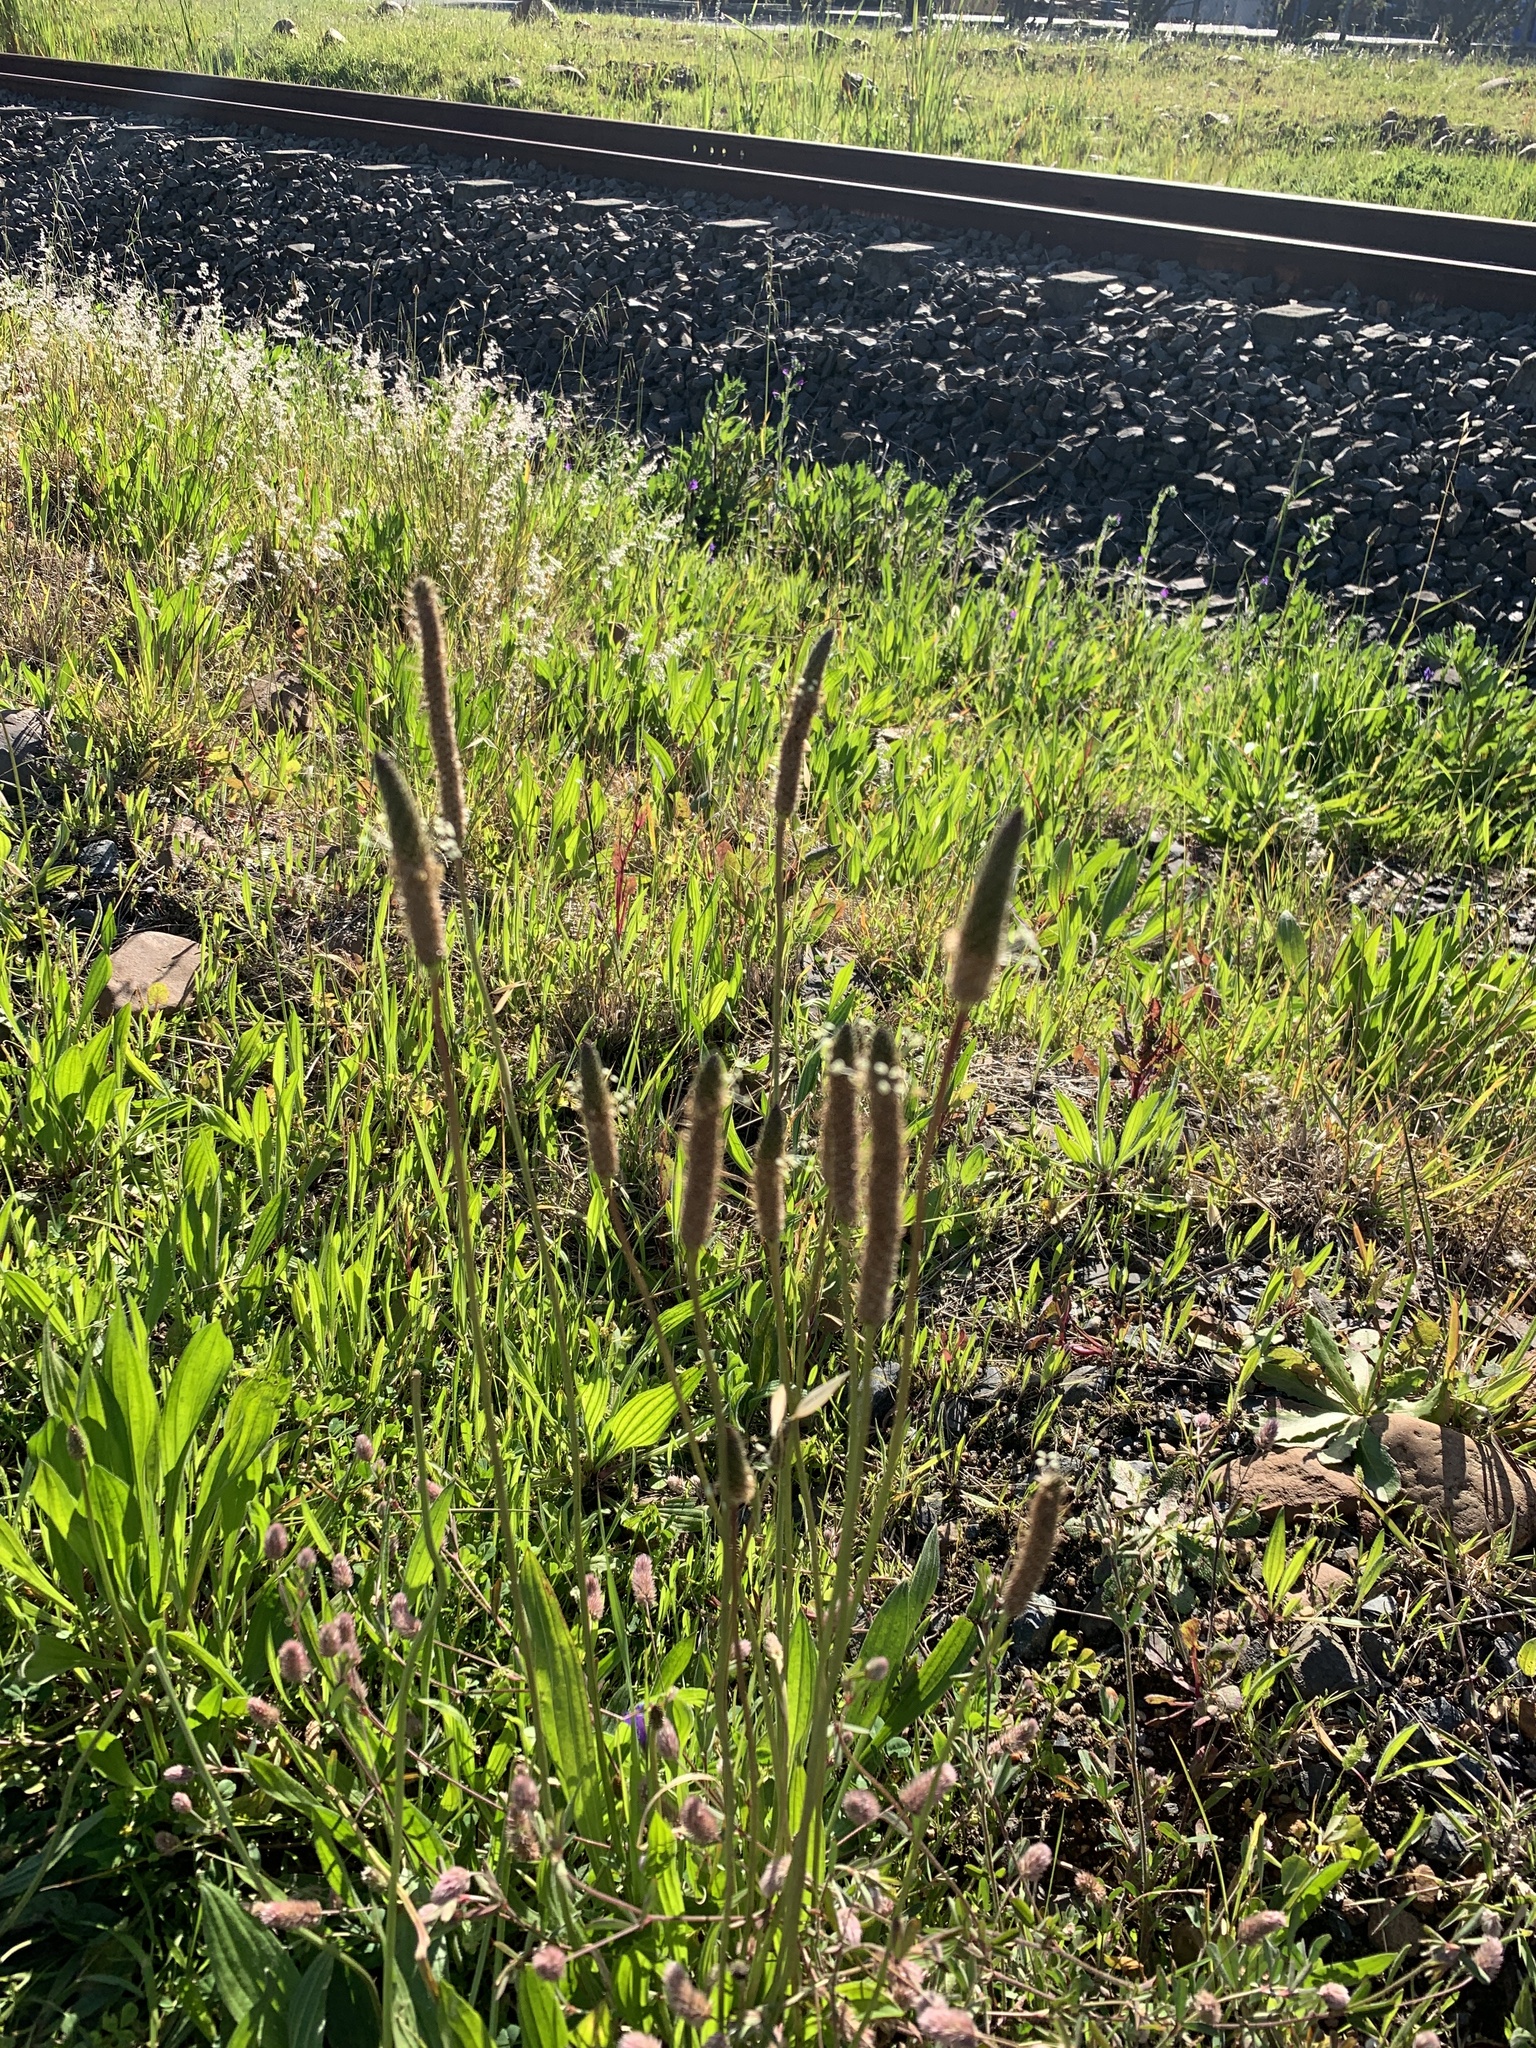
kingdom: Plantae
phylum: Tracheophyta
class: Magnoliopsida
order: Lamiales
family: Plantaginaceae
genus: Plantago
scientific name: Plantago lanceolata
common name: Ribwort plantain
